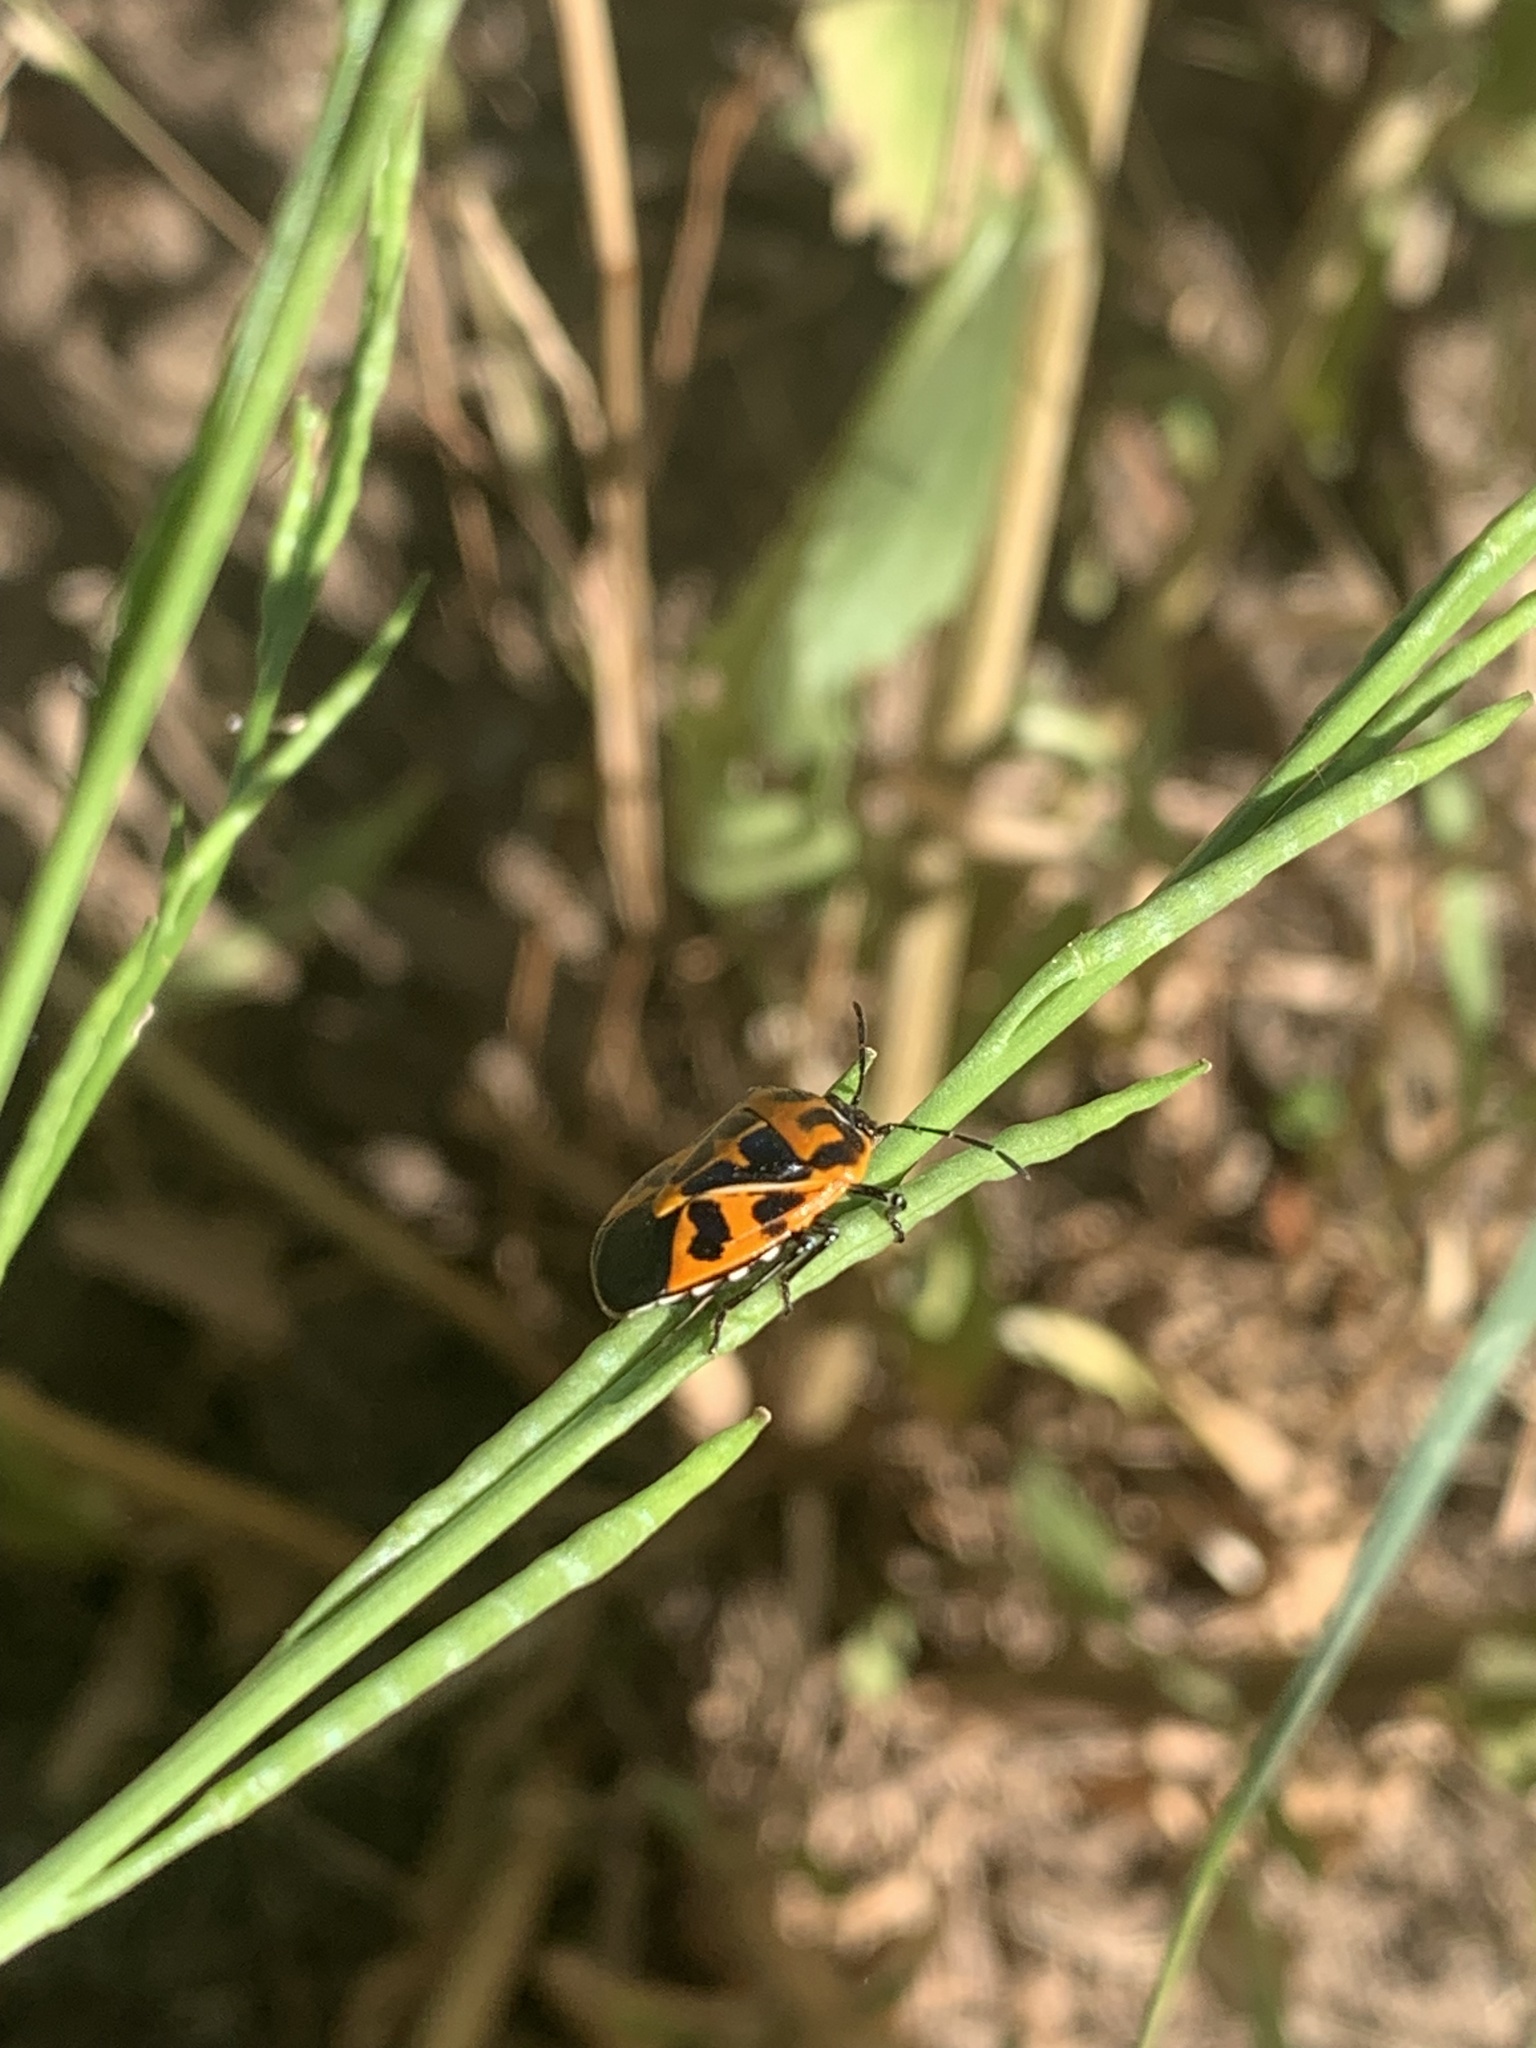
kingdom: Animalia
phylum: Arthropoda
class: Insecta
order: Hemiptera
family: Pentatomidae
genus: Murgantia
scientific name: Murgantia histrionica
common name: Harlequin bug
